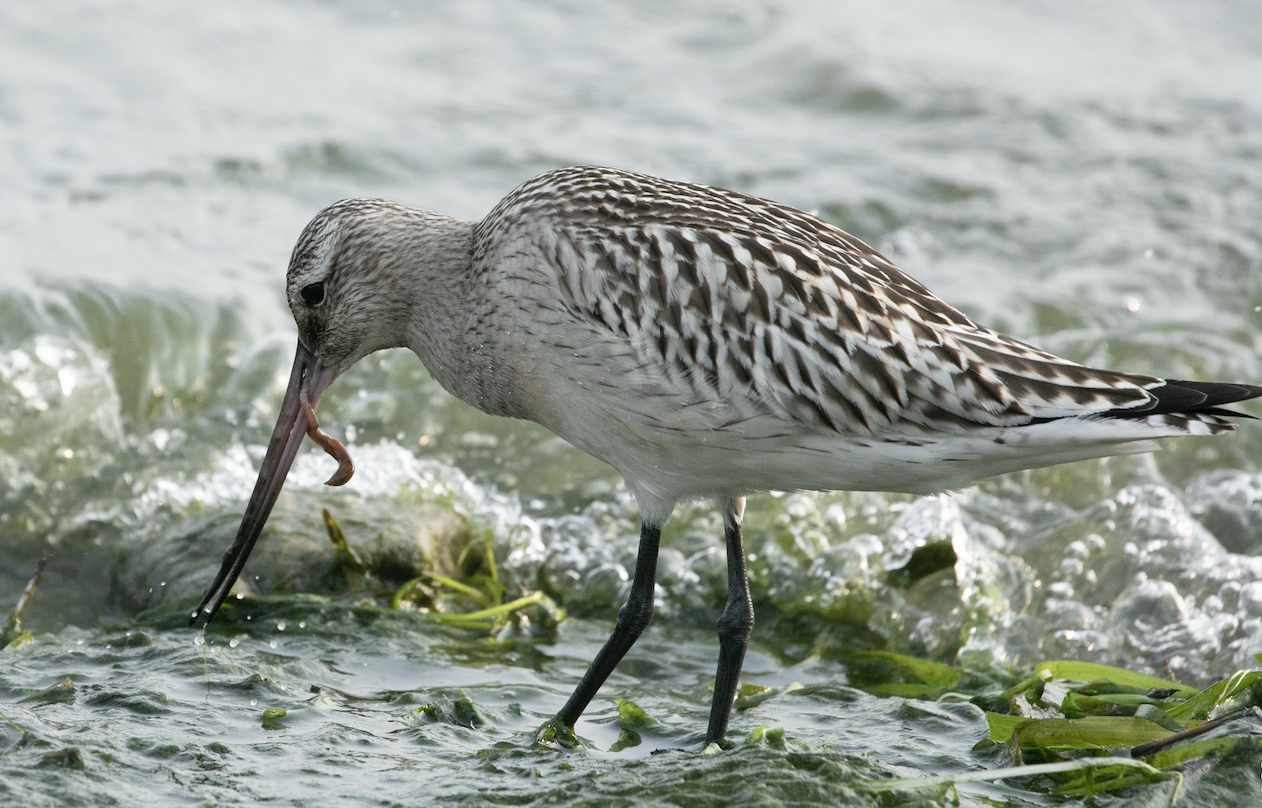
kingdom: Animalia
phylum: Chordata
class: Aves
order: Charadriiformes
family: Scolopacidae
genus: Limosa
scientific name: Limosa lapponica
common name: Bar-tailed godwit
